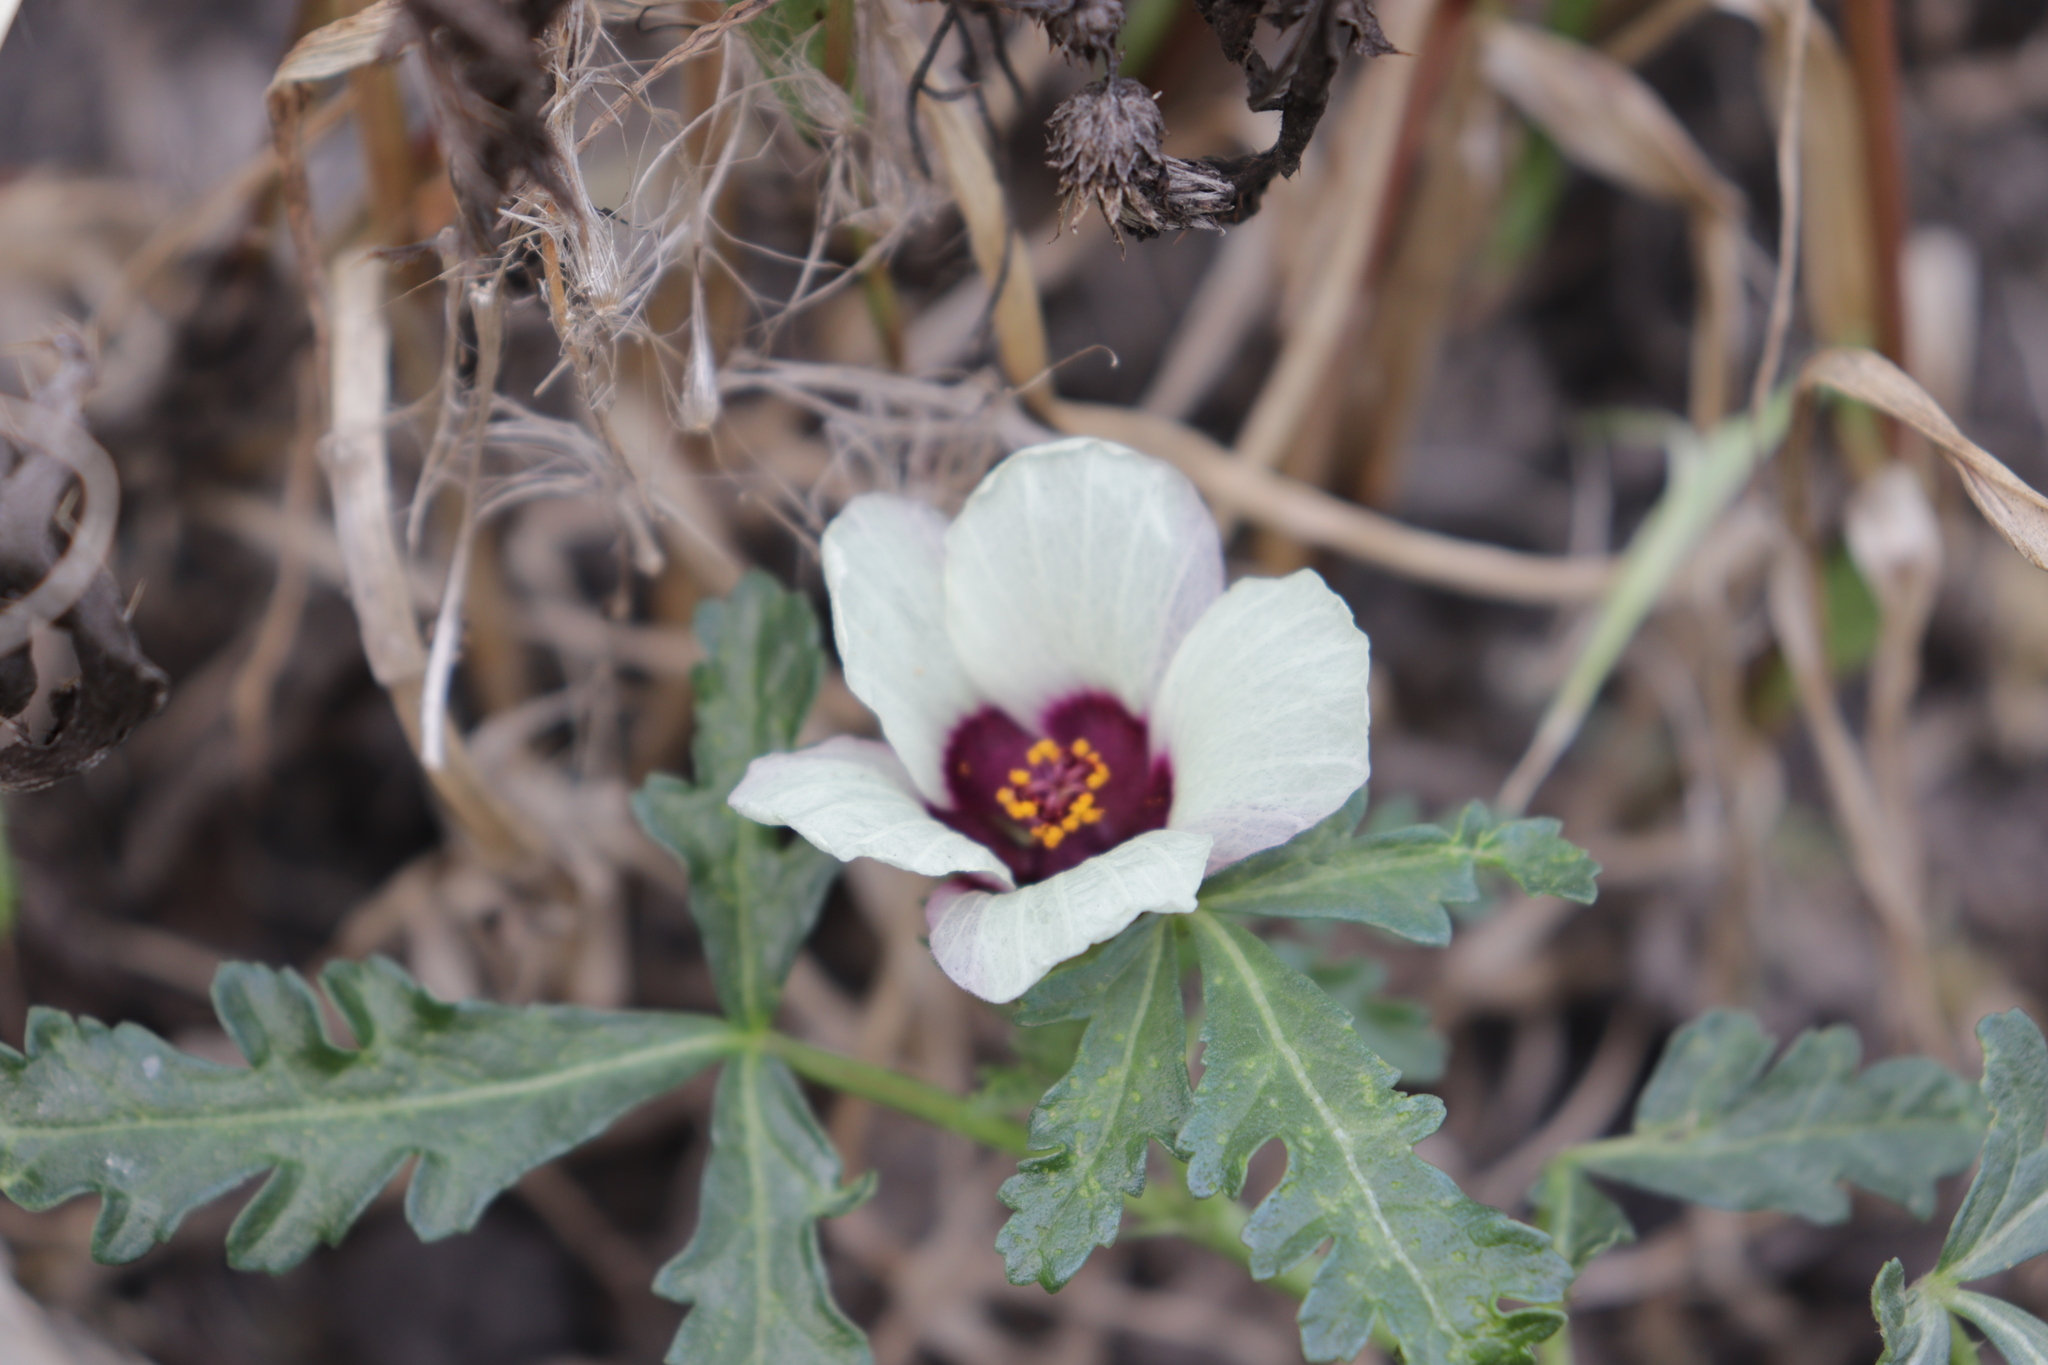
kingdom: Plantae
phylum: Tracheophyta
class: Magnoliopsida
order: Malvales
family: Malvaceae
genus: Hibiscus
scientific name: Hibiscus trionum
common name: Bladder ketmia
